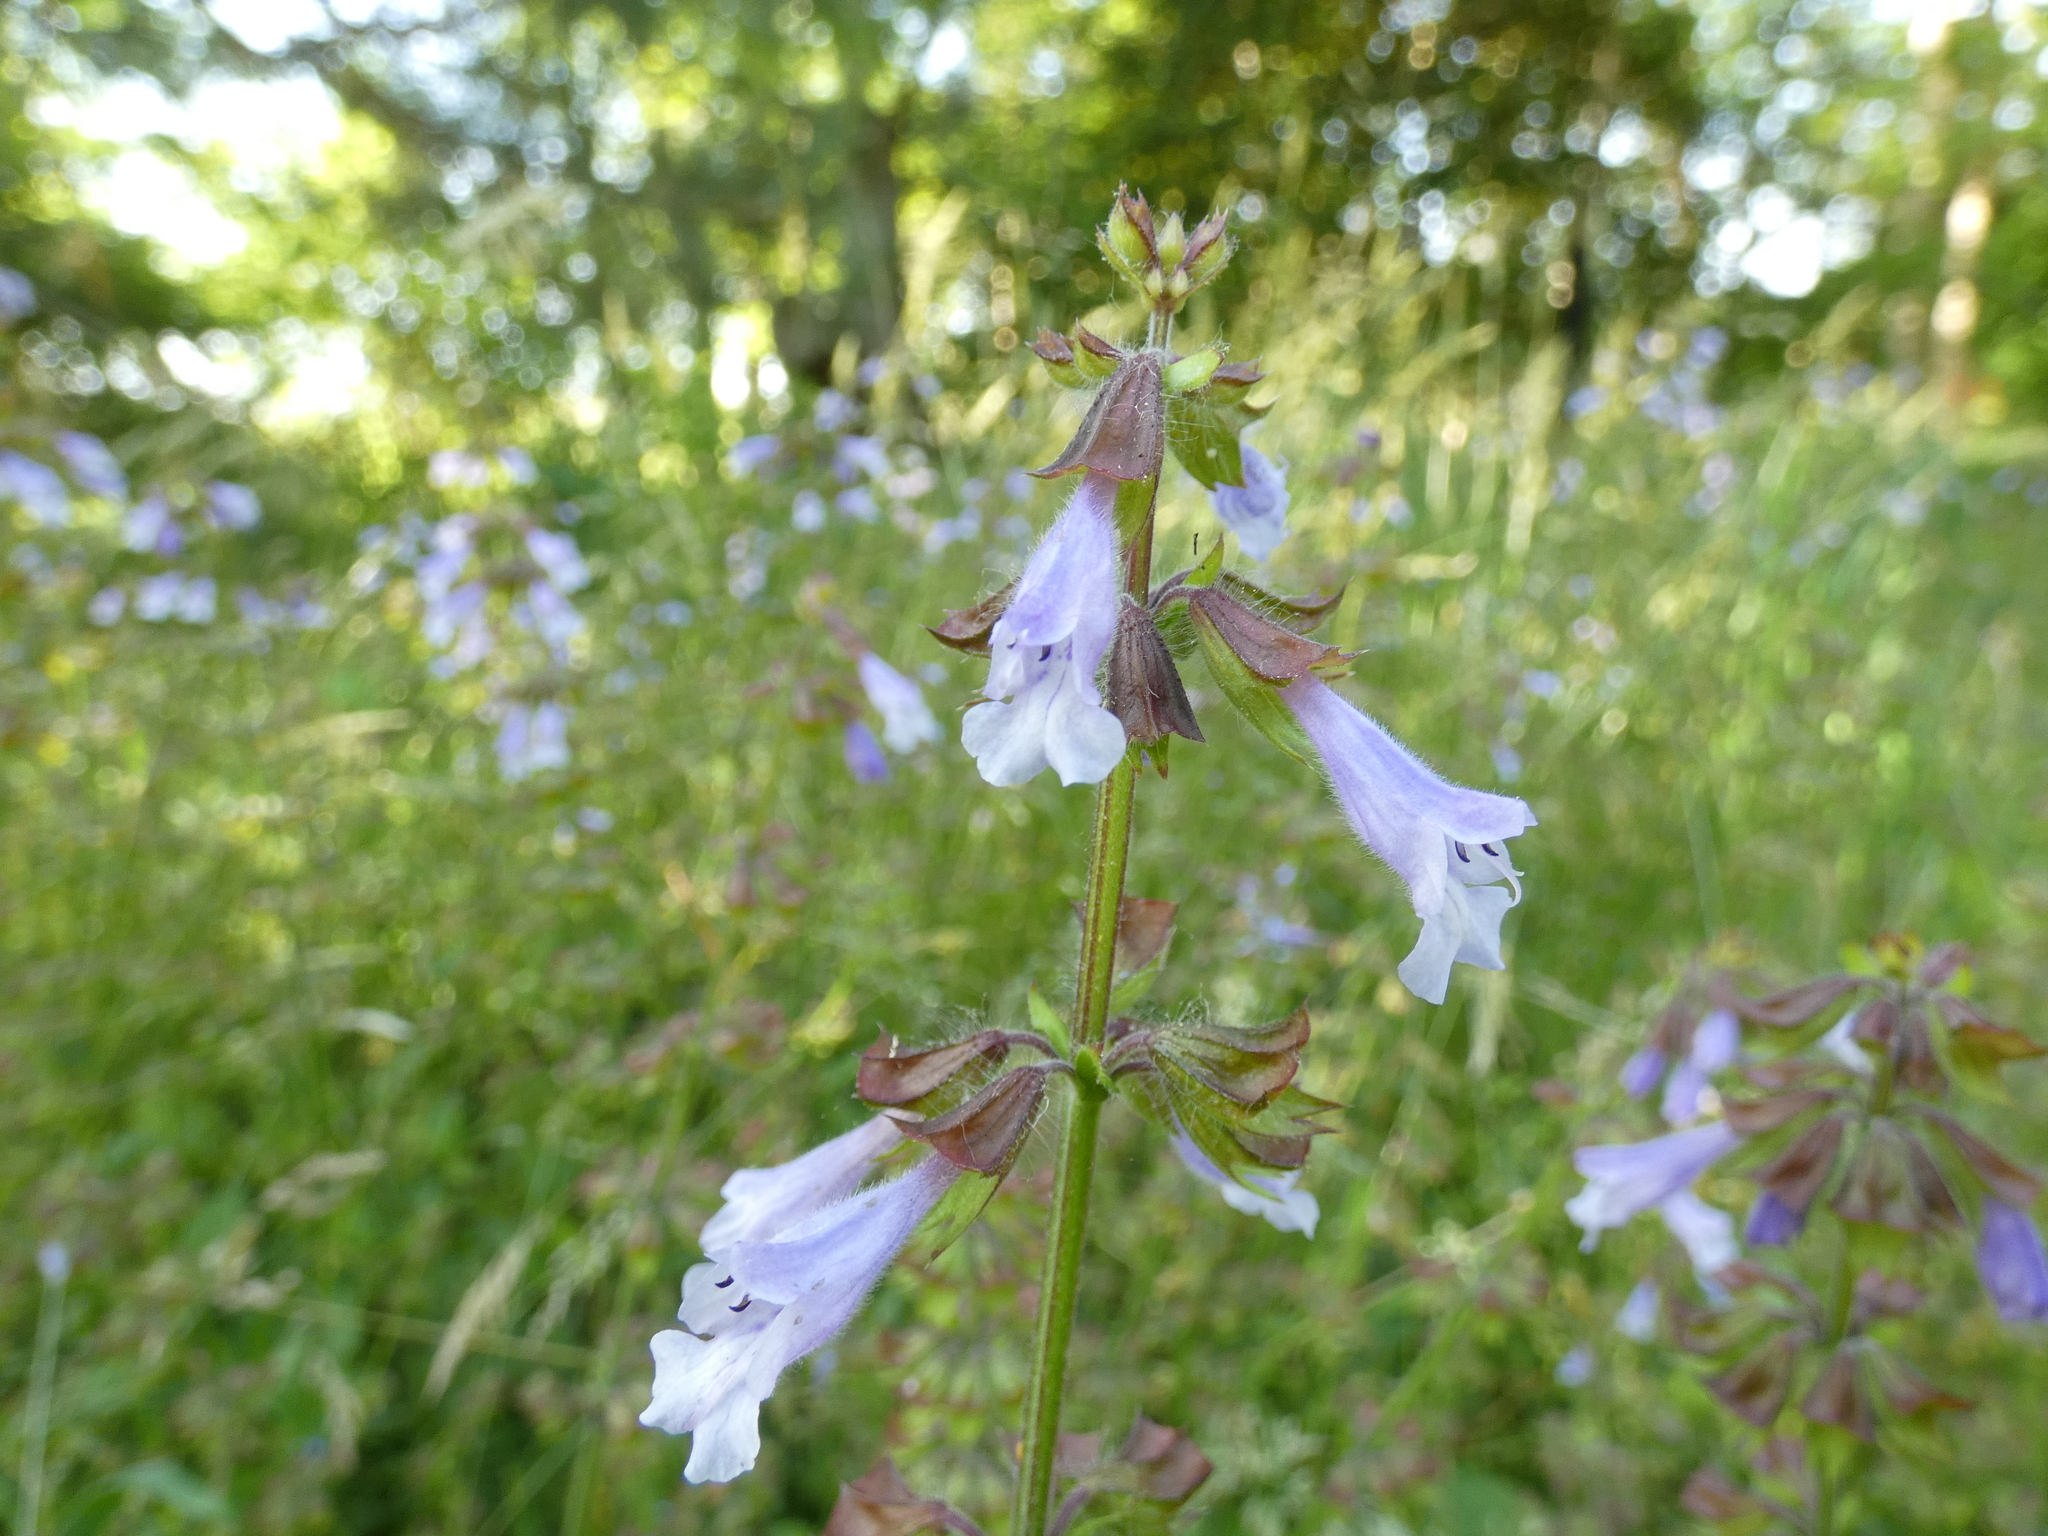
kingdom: Plantae
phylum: Tracheophyta
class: Magnoliopsida
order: Lamiales
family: Lamiaceae
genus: Salvia
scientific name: Salvia lyrata
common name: Cancerweed
